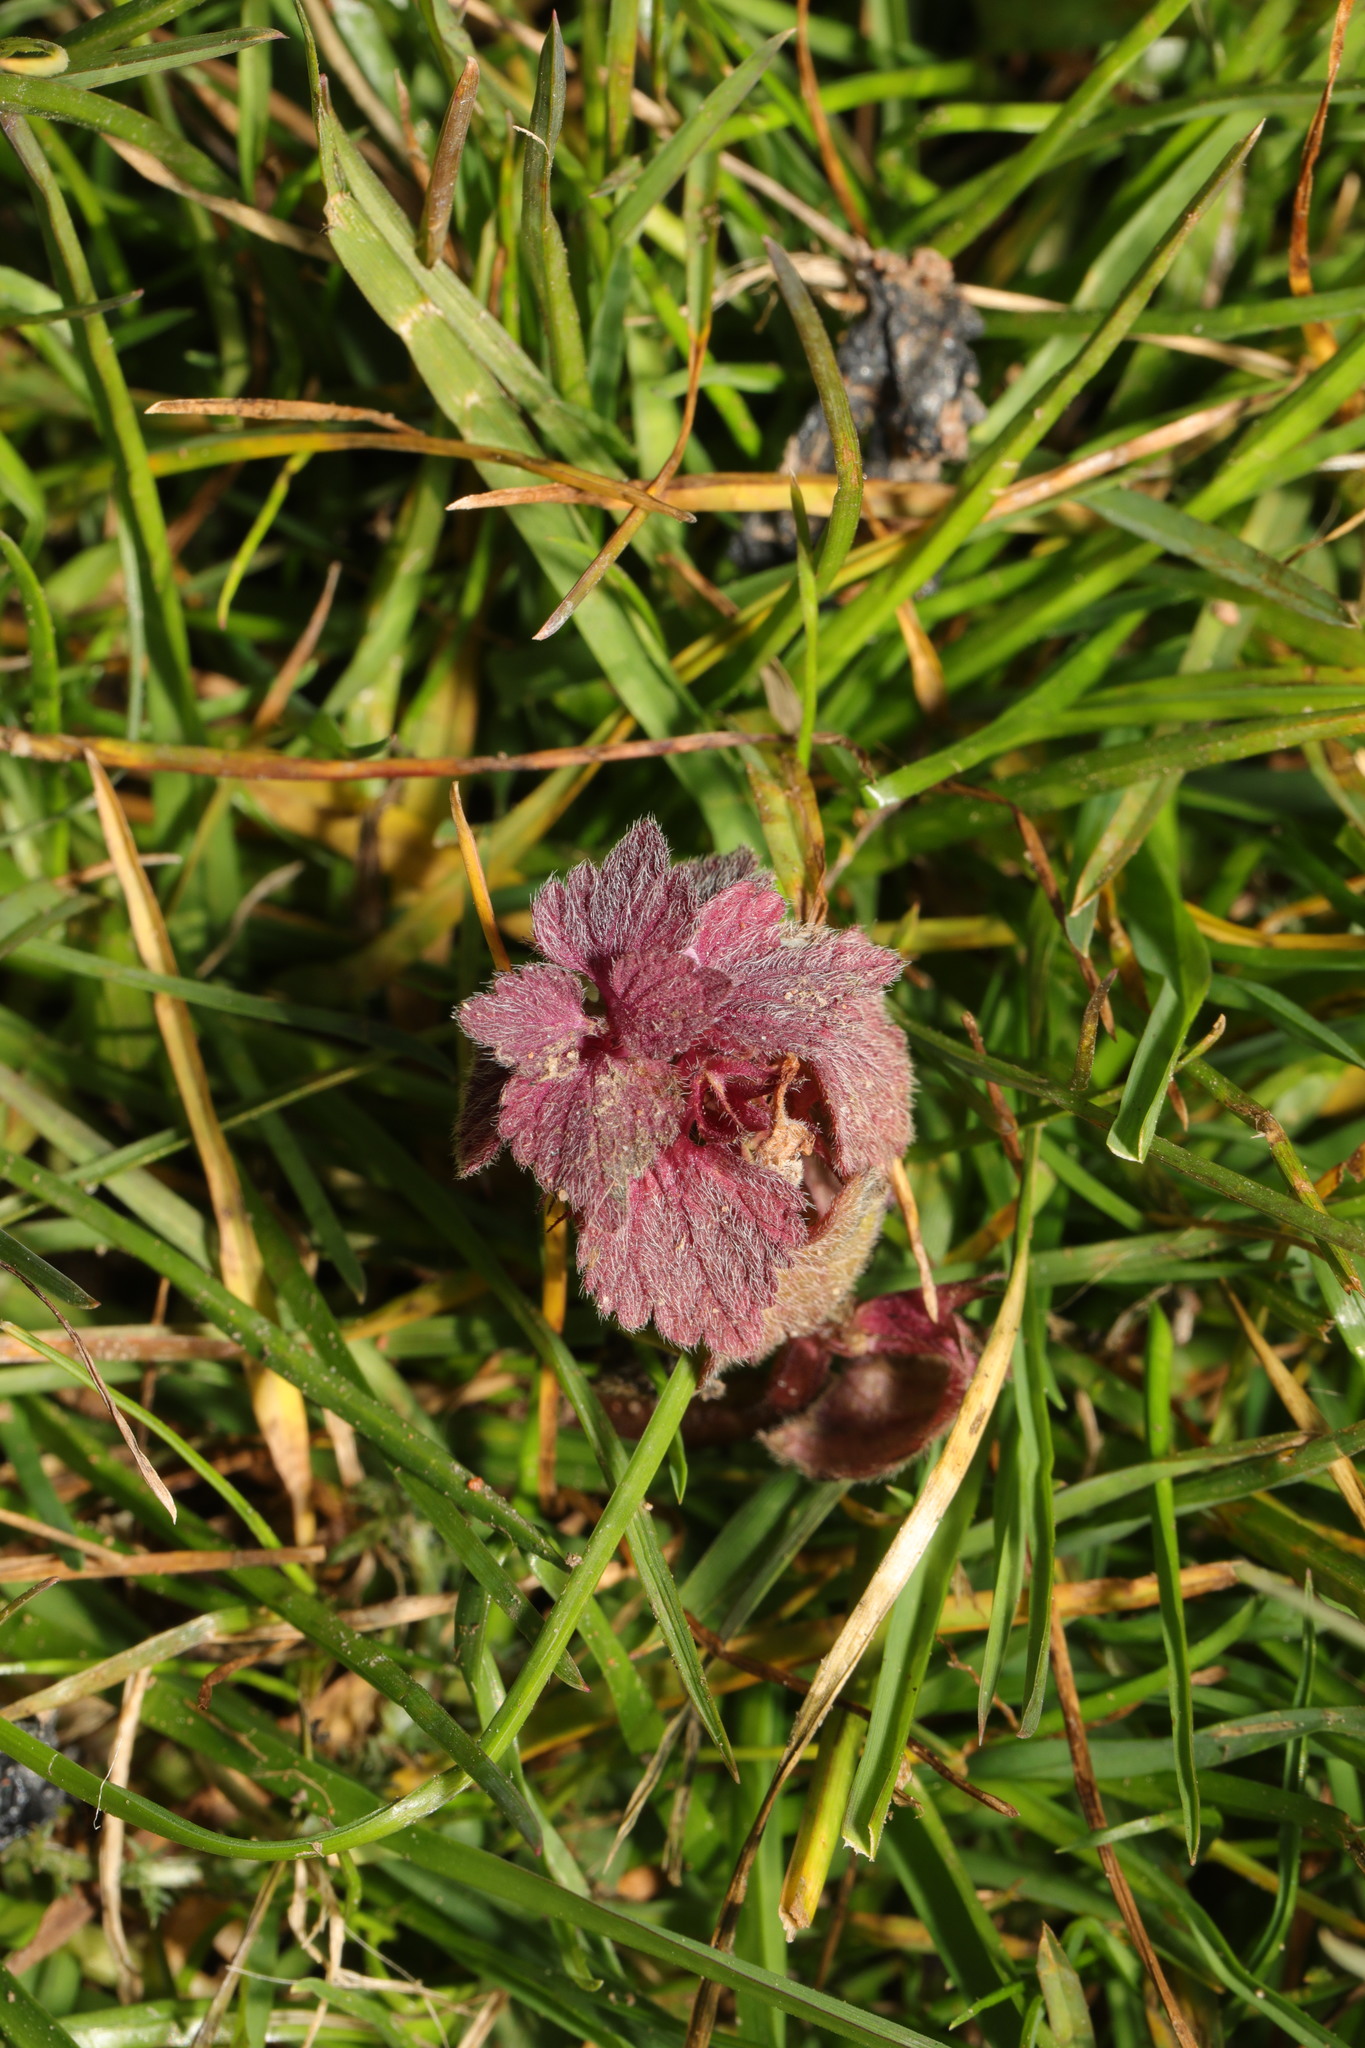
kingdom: Plantae
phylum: Tracheophyta
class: Magnoliopsida
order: Lamiales
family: Lamiaceae
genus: Lamium
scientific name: Lamium purpureum
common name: Red dead-nettle
